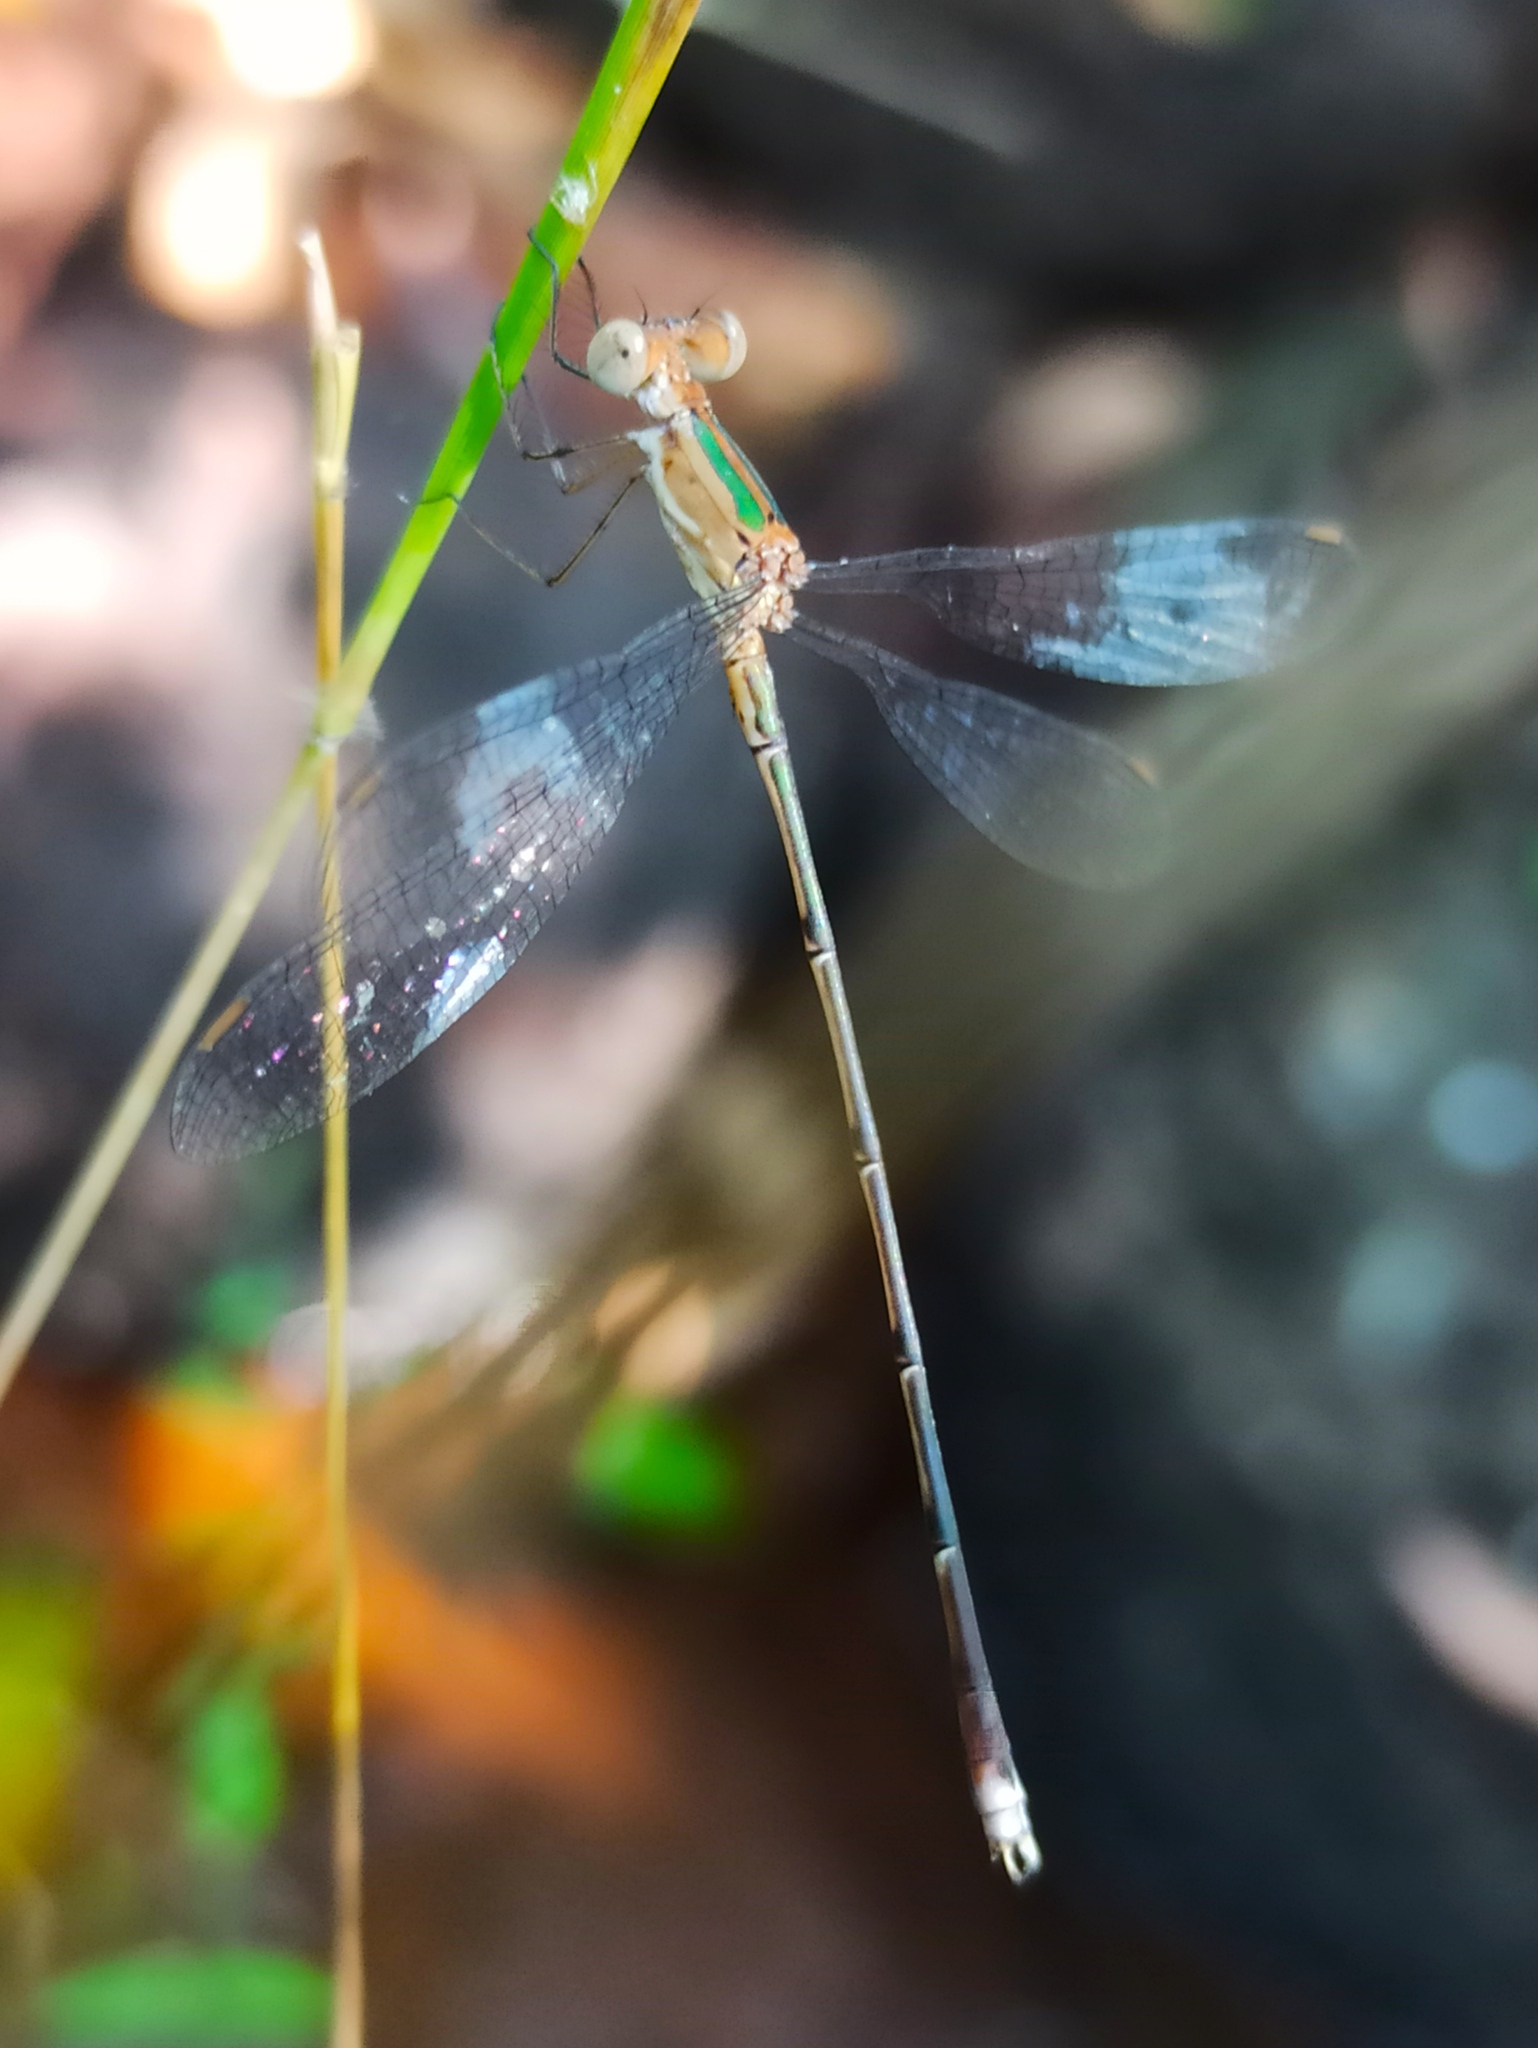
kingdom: Animalia
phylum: Arthropoda
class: Insecta
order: Odonata
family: Lestidae
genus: Lestes
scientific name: Lestes elatus
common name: Emerald spreadwing
